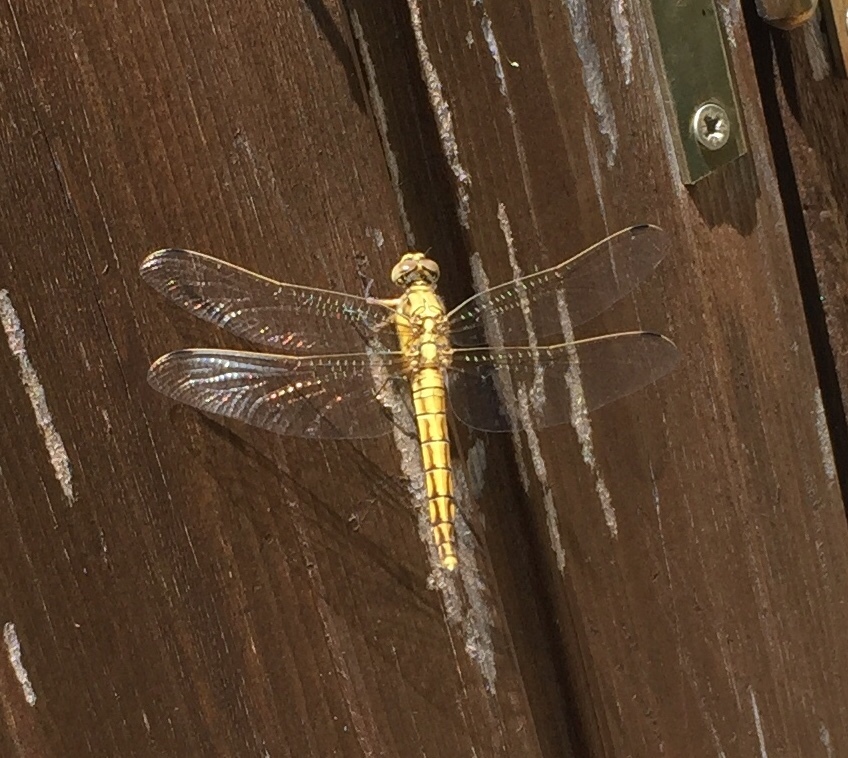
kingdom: Animalia
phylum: Arthropoda
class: Insecta
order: Odonata
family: Libellulidae
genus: Orthetrum
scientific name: Orthetrum cancellatum
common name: Black-tailed skimmer
